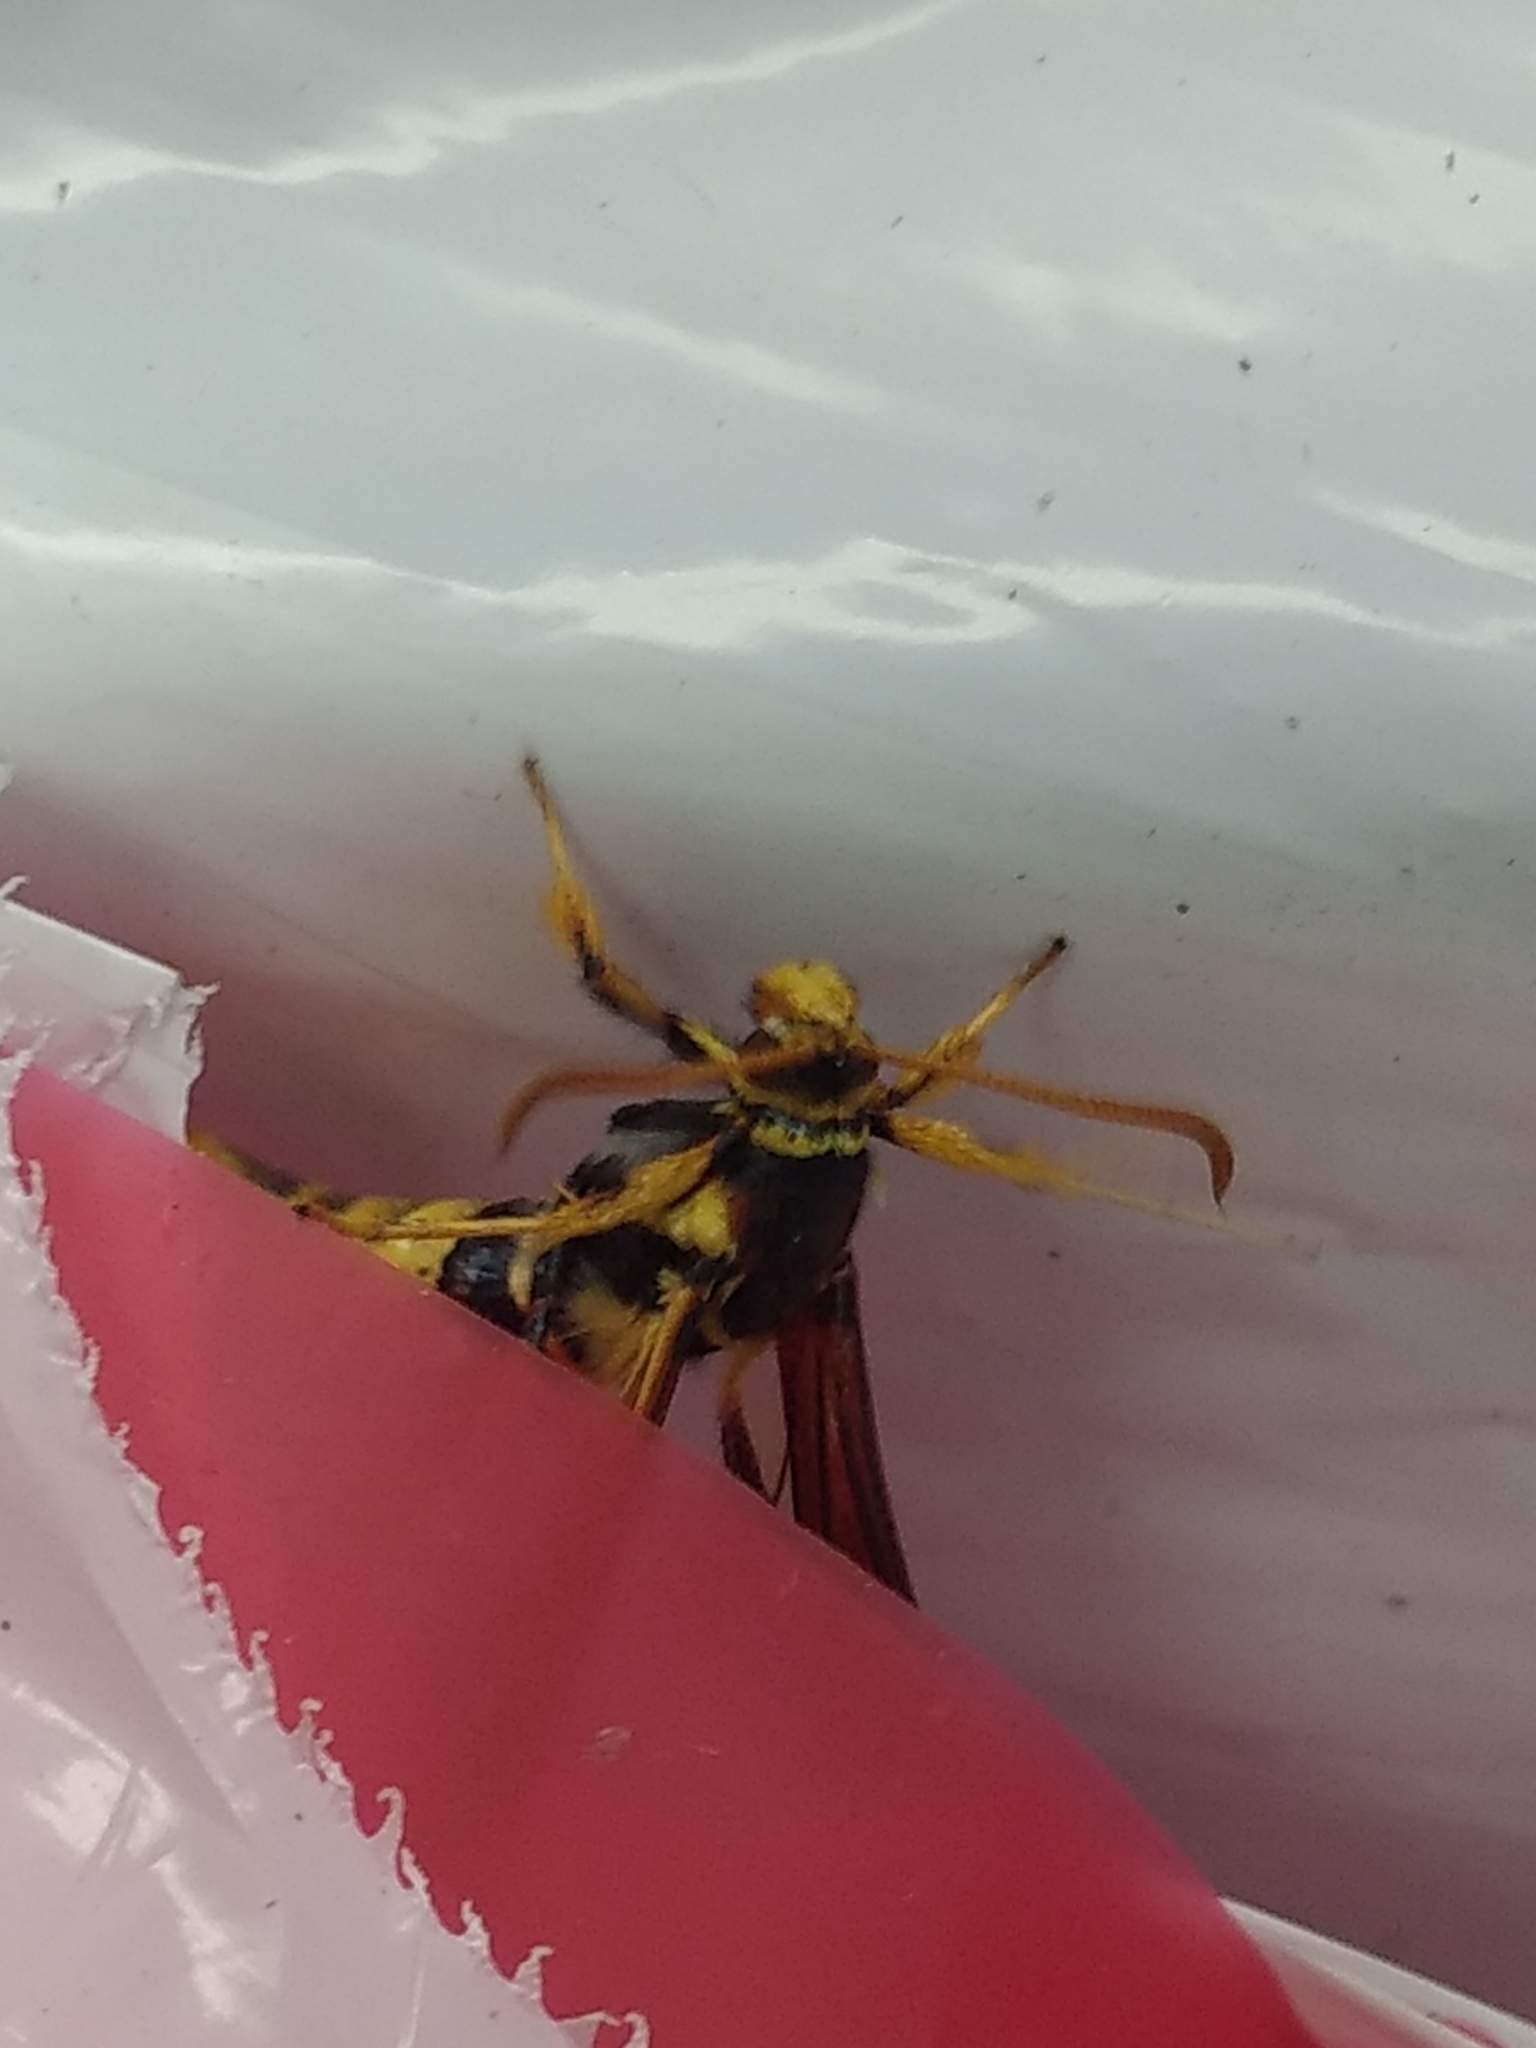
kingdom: Animalia
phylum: Arthropoda
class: Insecta
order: Lepidoptera
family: Sesiidae
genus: Paranthrene
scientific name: Paranthrene robiniae
